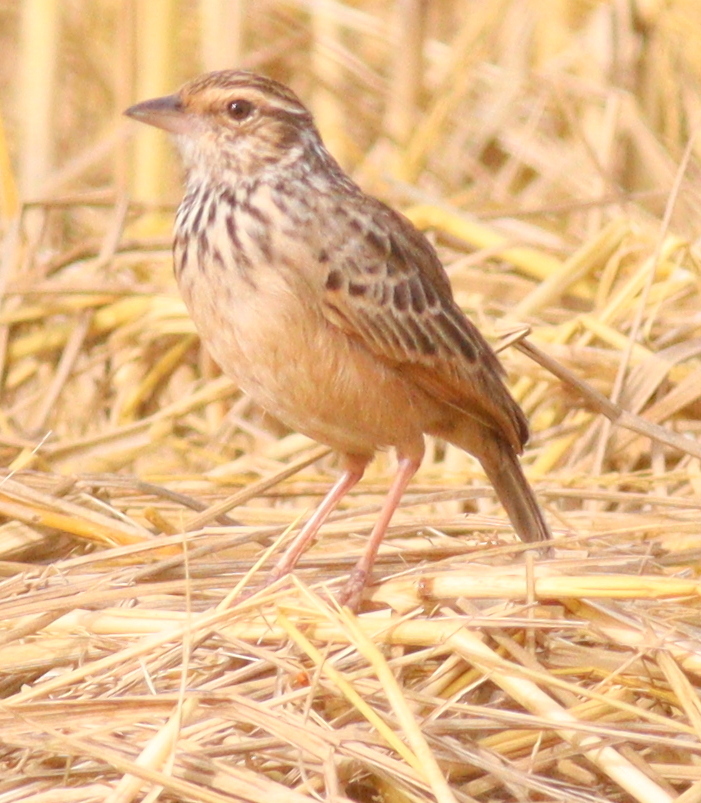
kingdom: Animalia
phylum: Chordata
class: Aves
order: Passeriformes
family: Alaudidae
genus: Mirafra
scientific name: Mirafra erythrocephala
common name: Indochinese bushlark
